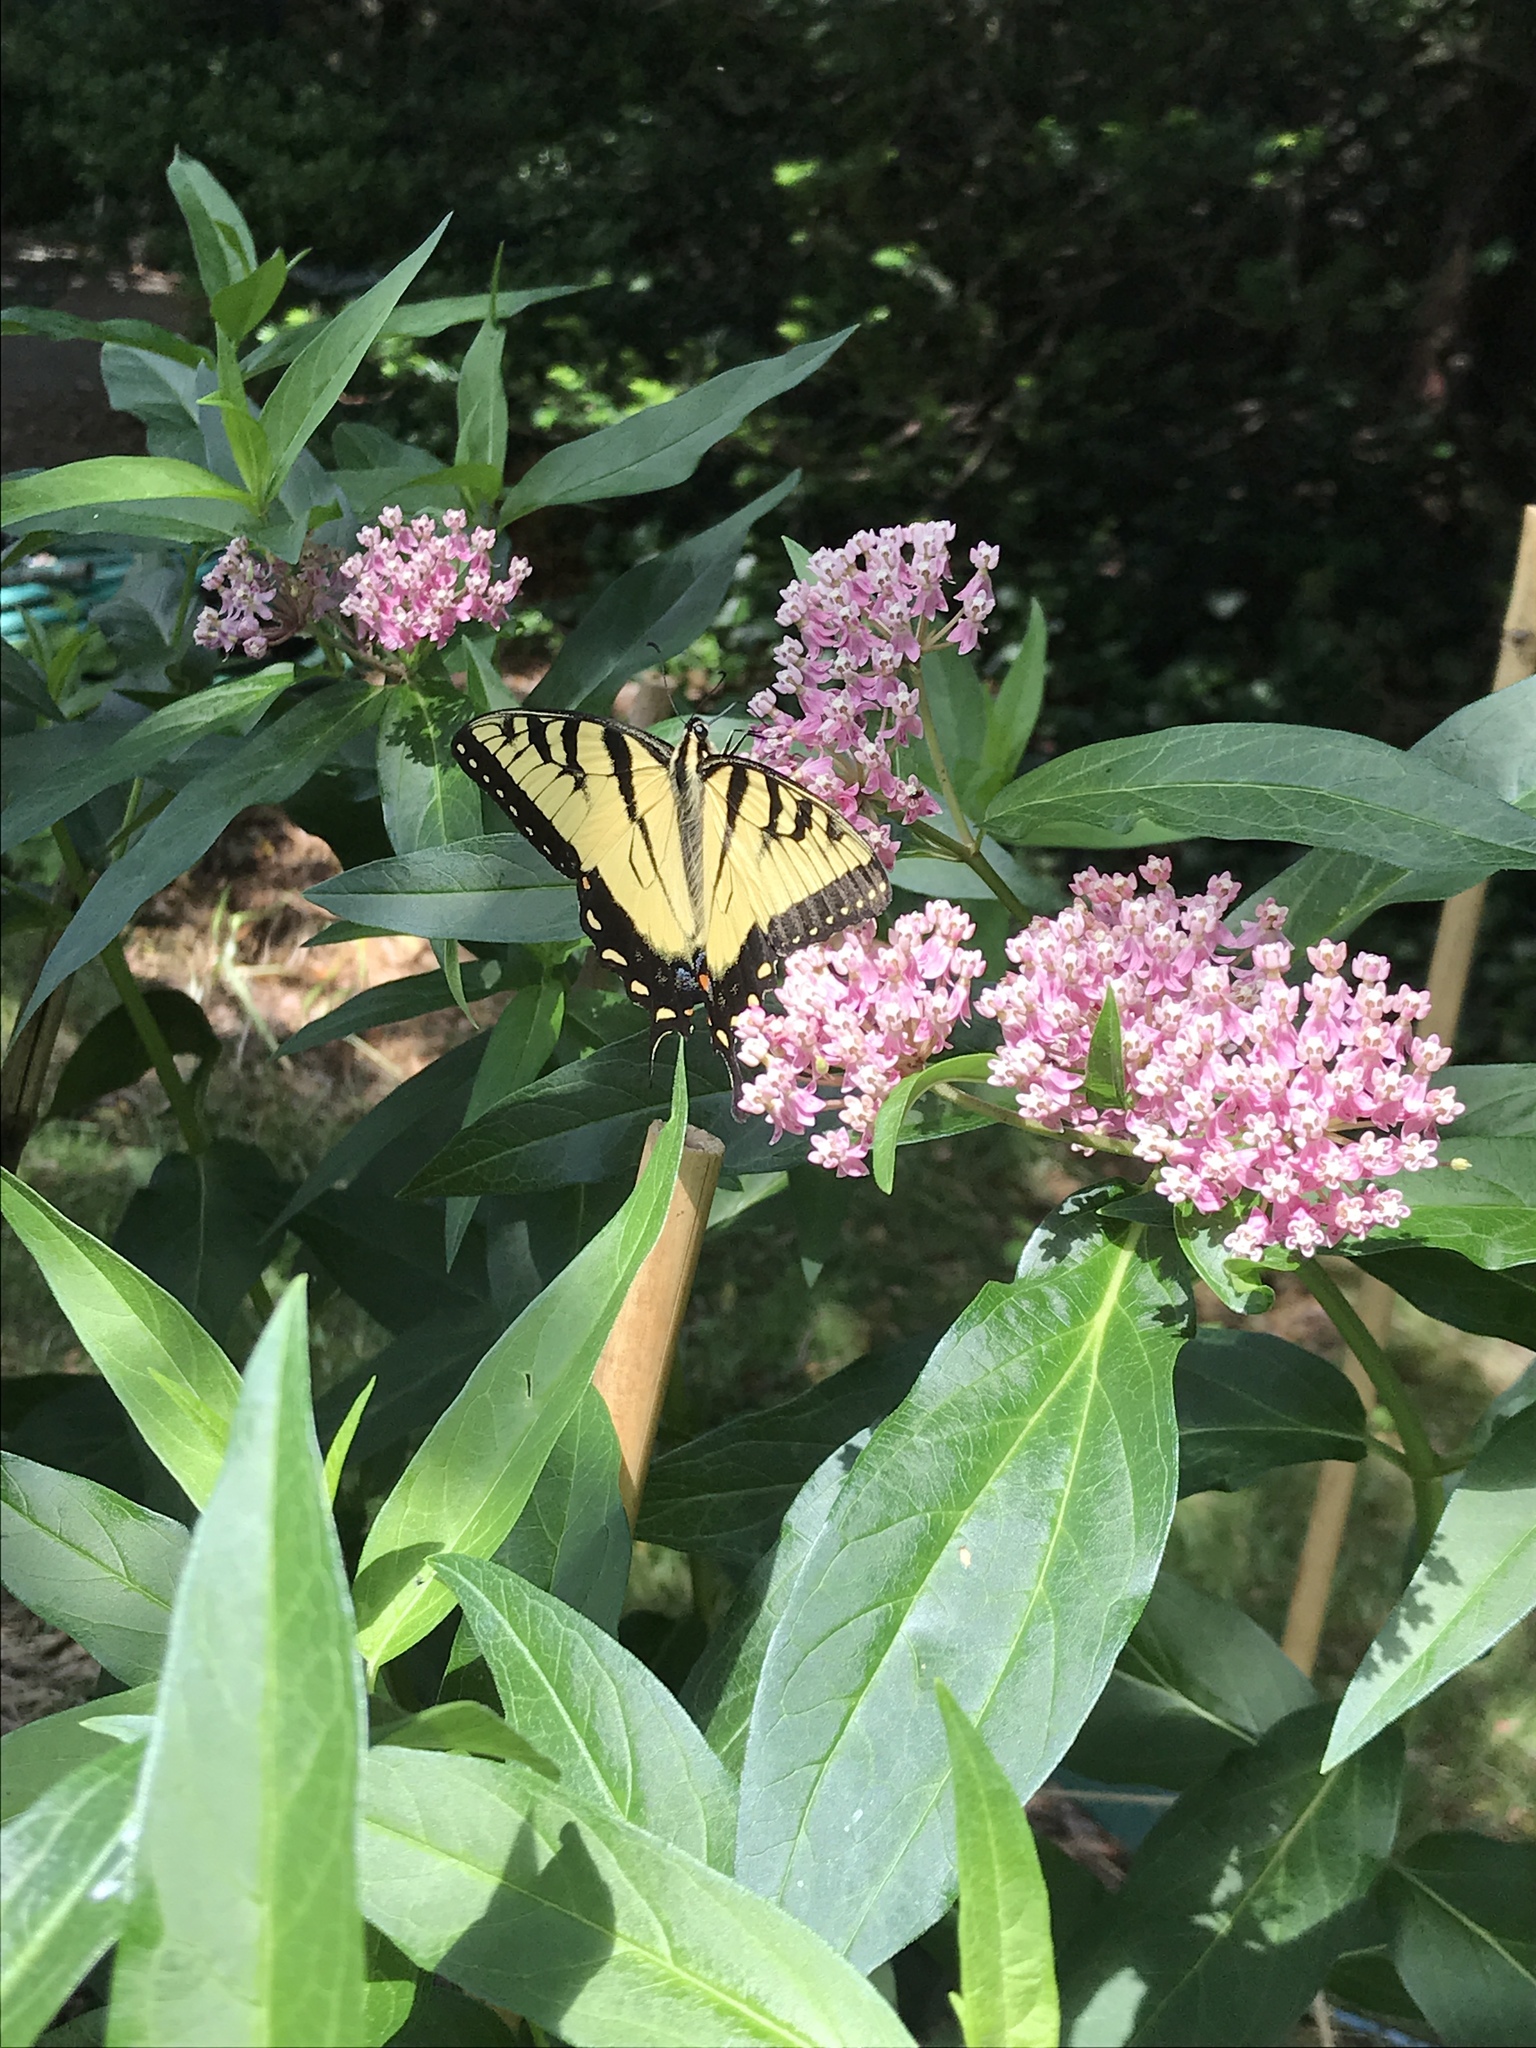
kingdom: Animalia
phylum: Arthropoda
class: Insecta
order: Lepidoptera
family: Papilionidae
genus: Papilio
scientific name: Papilio glaucus
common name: Tiger swallowtail
